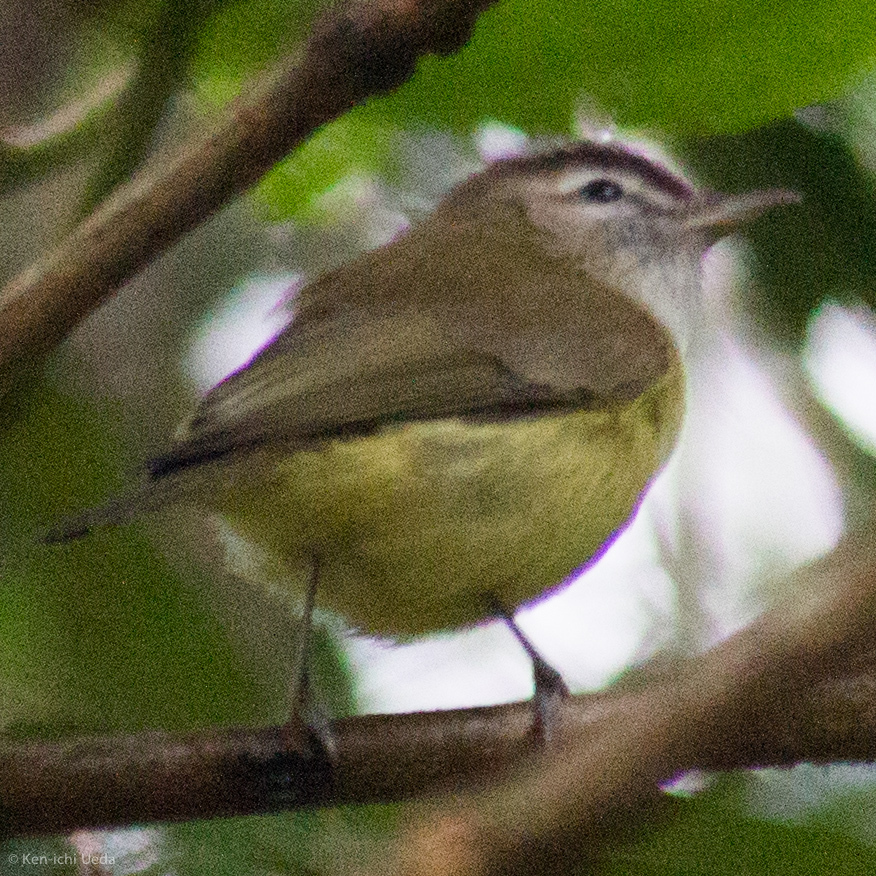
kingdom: Animalia
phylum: Chordata
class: Aves
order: Passeriformes
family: Vireonidae
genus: Vireo
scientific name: Vireo leucophrys
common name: Brown-capped vireo
